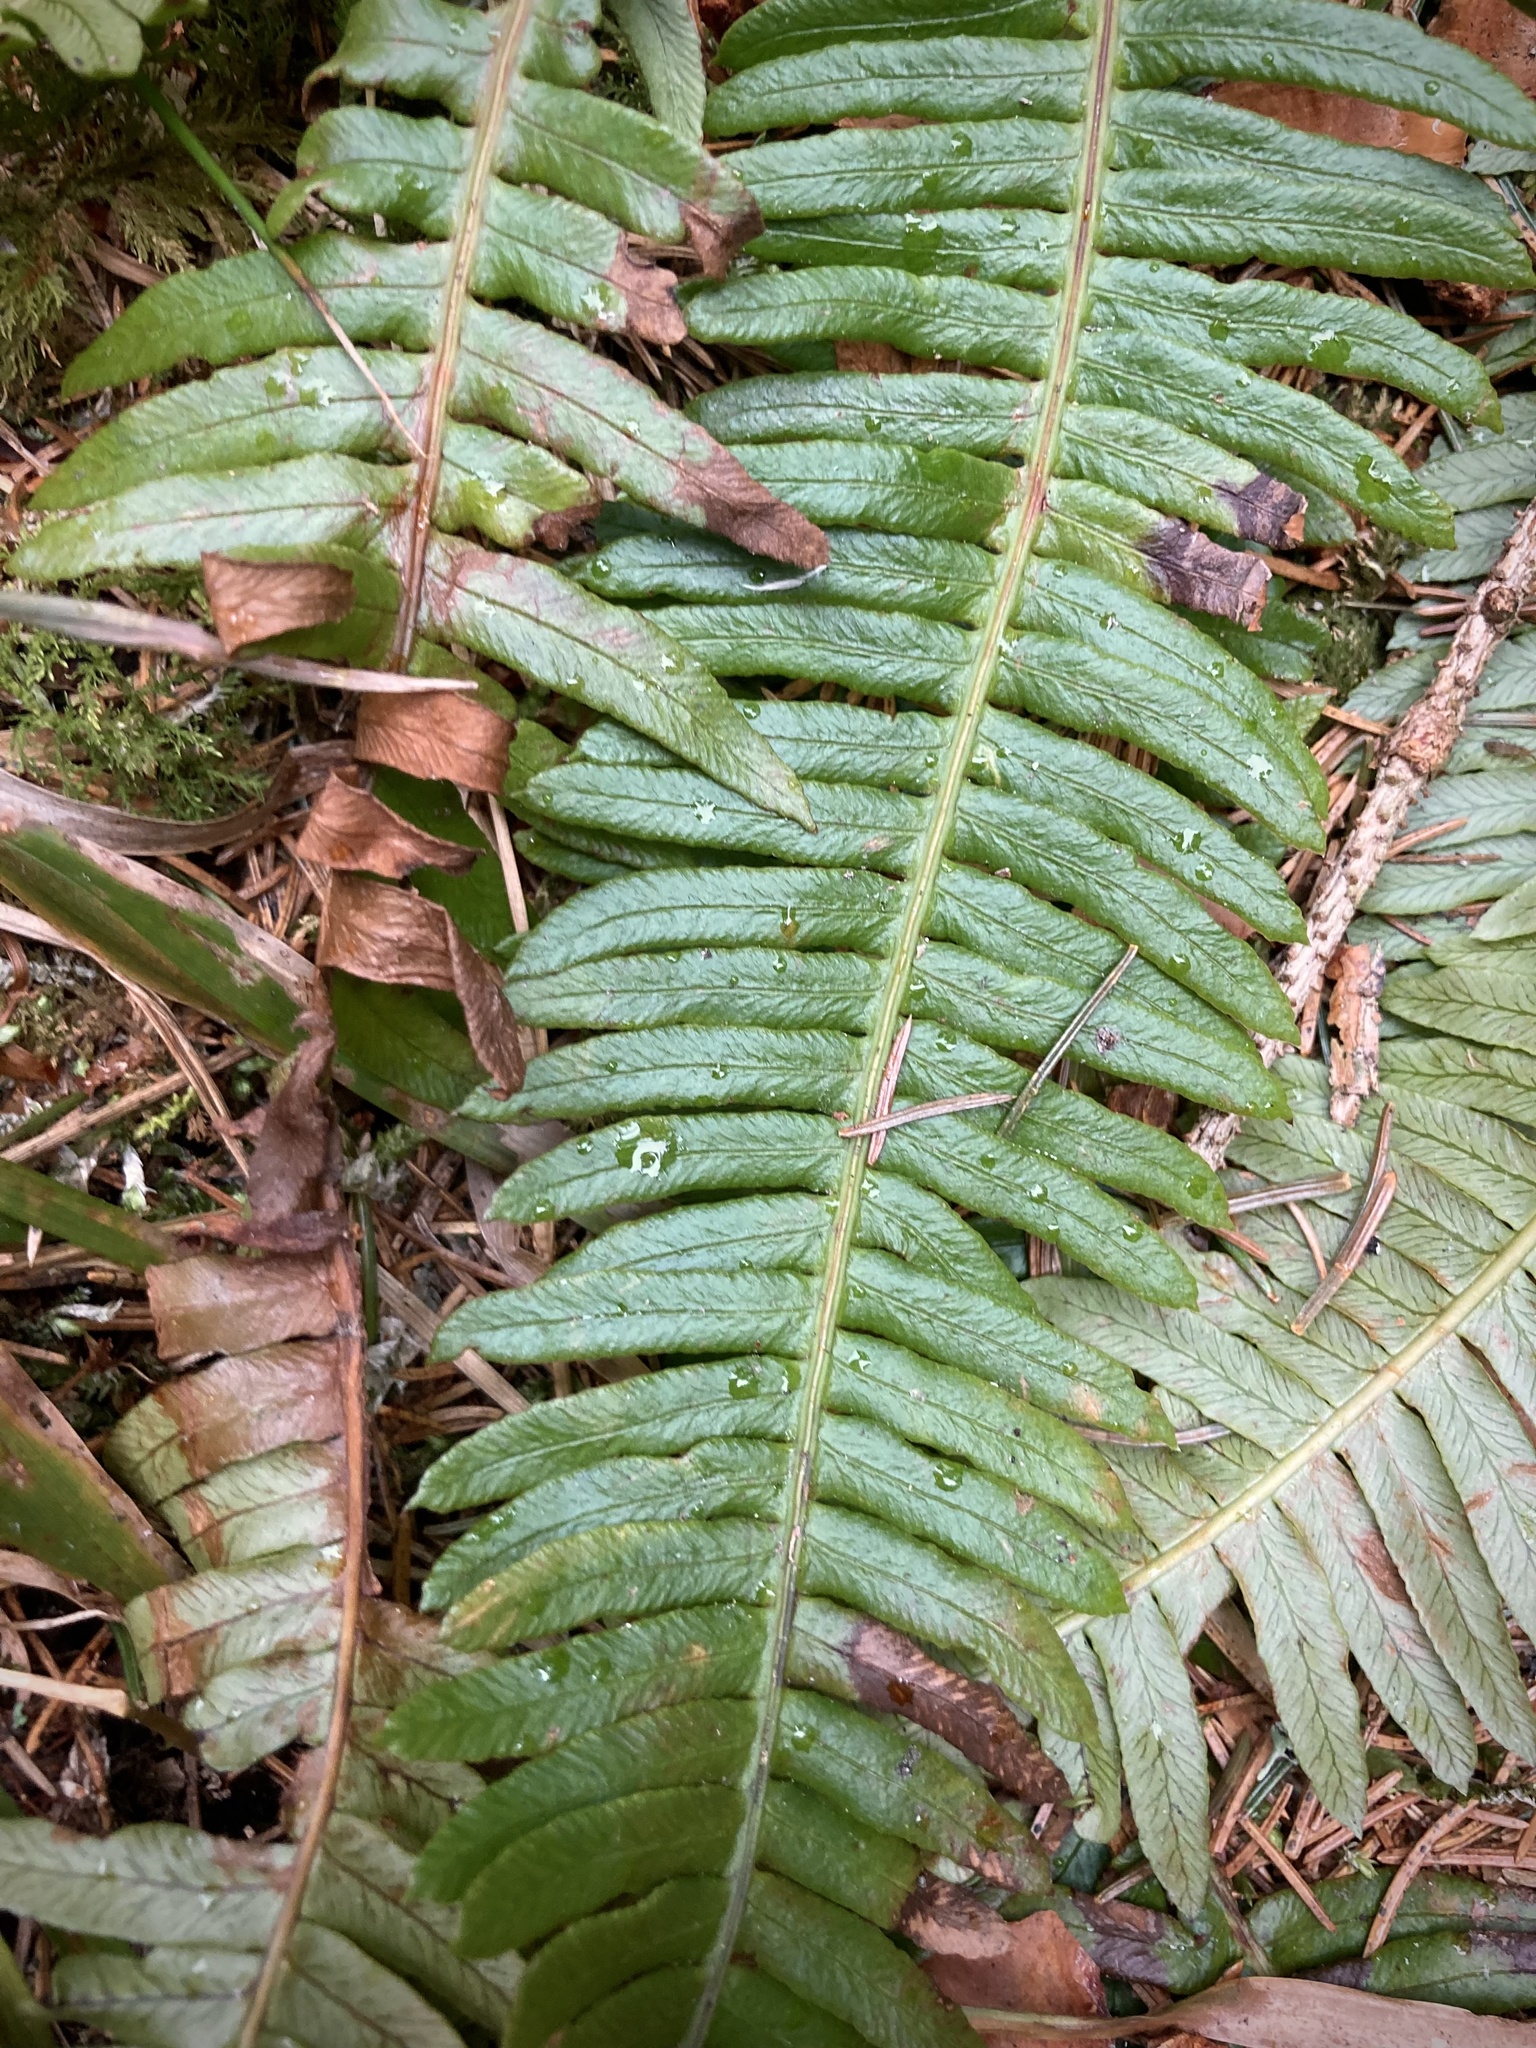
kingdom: Plantae
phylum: Tracheophyta
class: Polypodiopsida
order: Polypodiales
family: Blechnaceae
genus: Struthiopteris
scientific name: Struthiopteris spicant
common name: Deer fern
